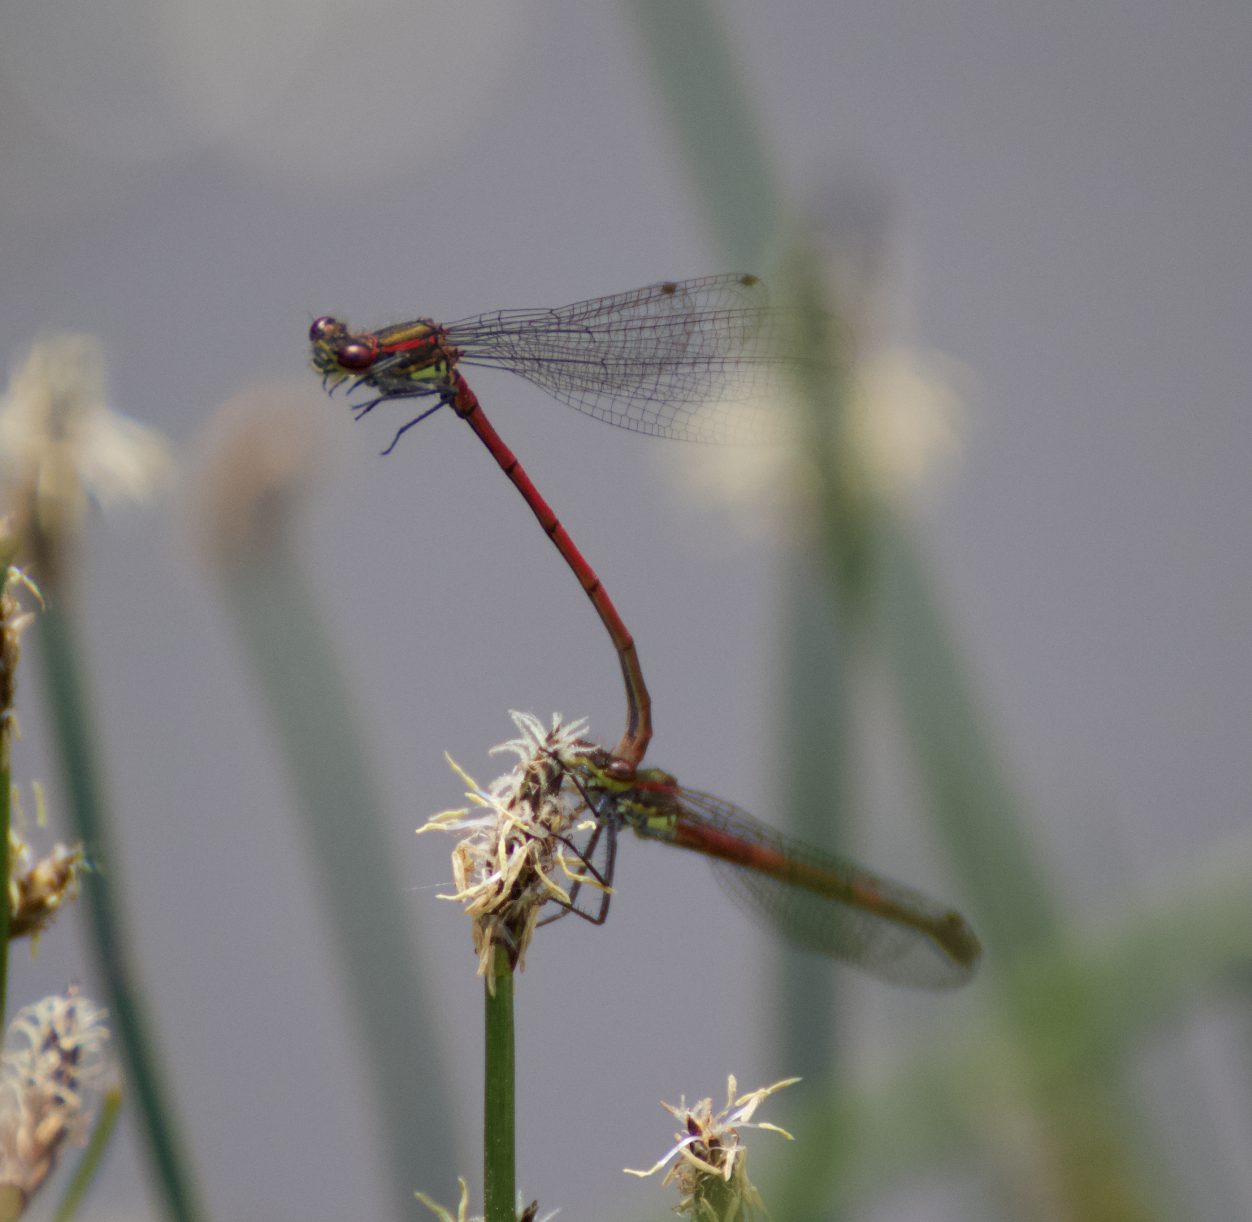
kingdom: Animalia
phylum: Arthropoda
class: Insecta
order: Odonata
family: Coenagrionidae
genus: Pyrrhosoma
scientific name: Pyrrhosoma nymphula
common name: Large red damsel
